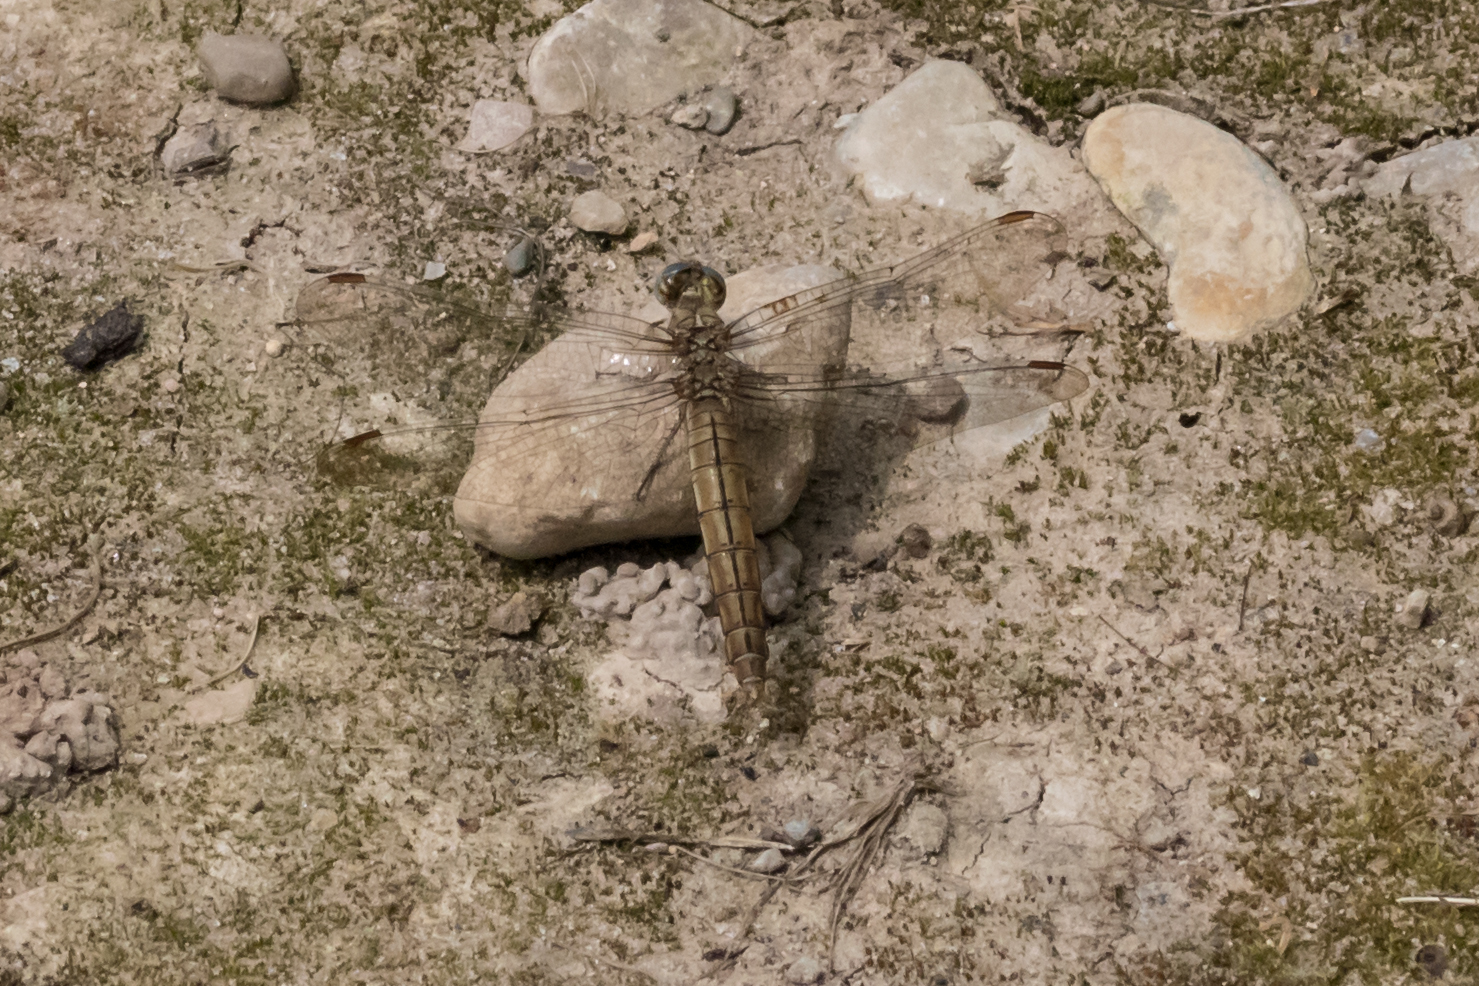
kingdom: Animalia
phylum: Arthropoda
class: Insecta
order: Odonata
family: Libellulidae
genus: Orthetrum
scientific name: Orthetrum brunneum
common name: Southern skimmer
